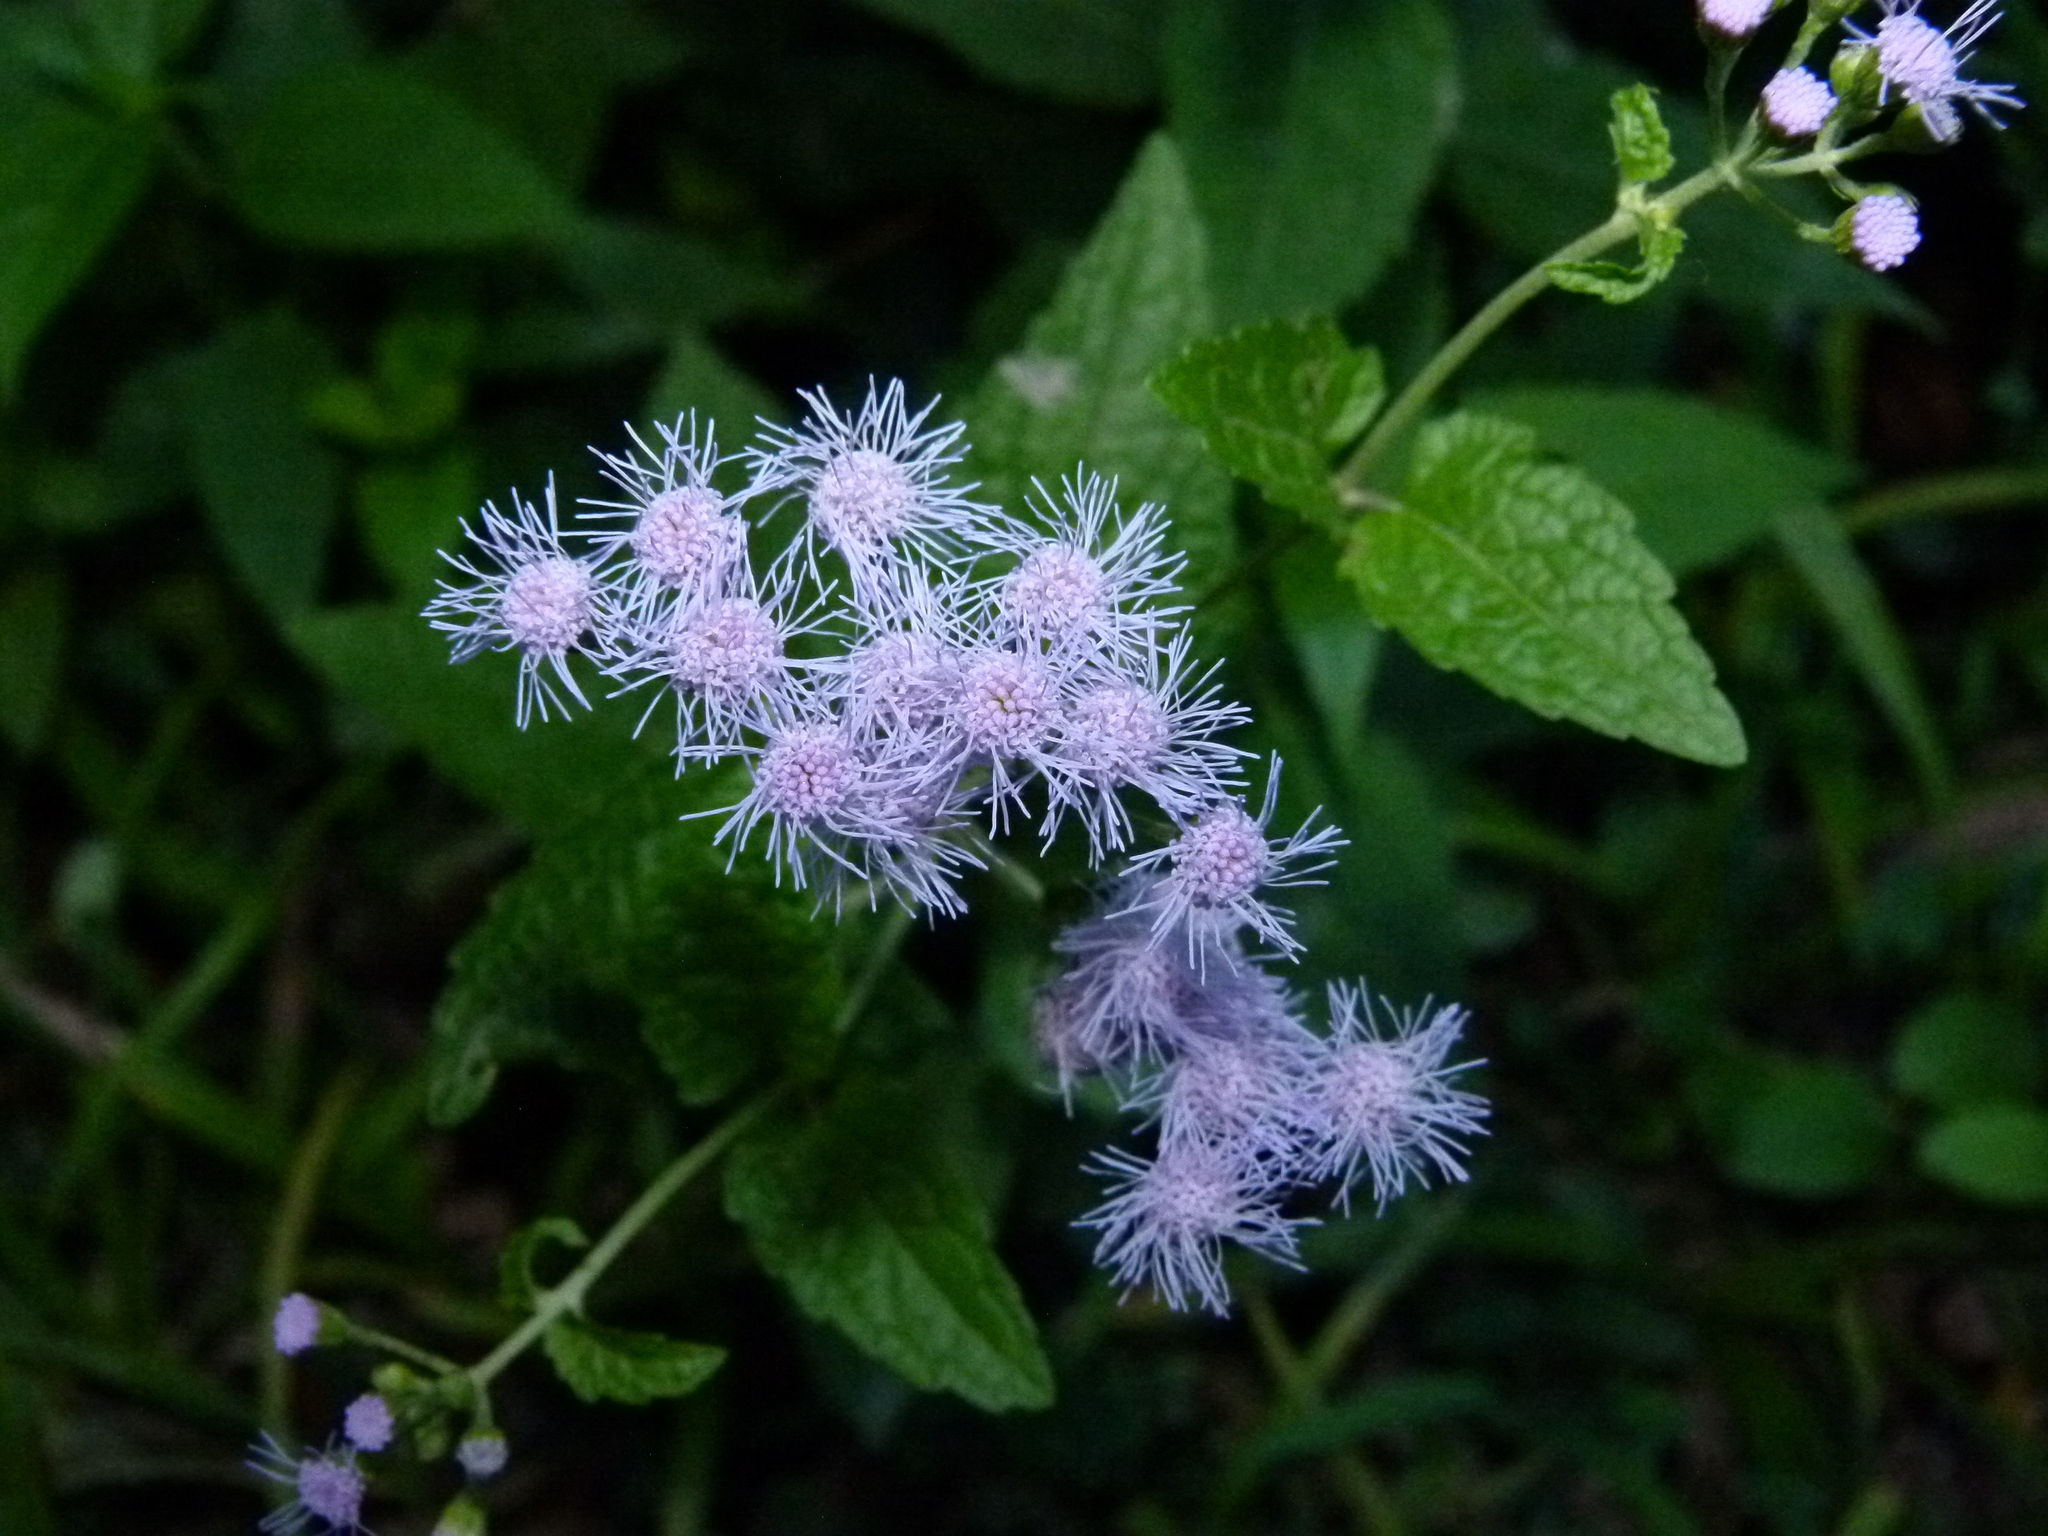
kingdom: Plantae
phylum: Tracheophyta
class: Magnoliopsida
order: Asterales
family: Asteraceae
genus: Conoclinium
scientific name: Conoclinium coelestinum
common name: Blue mistflower
